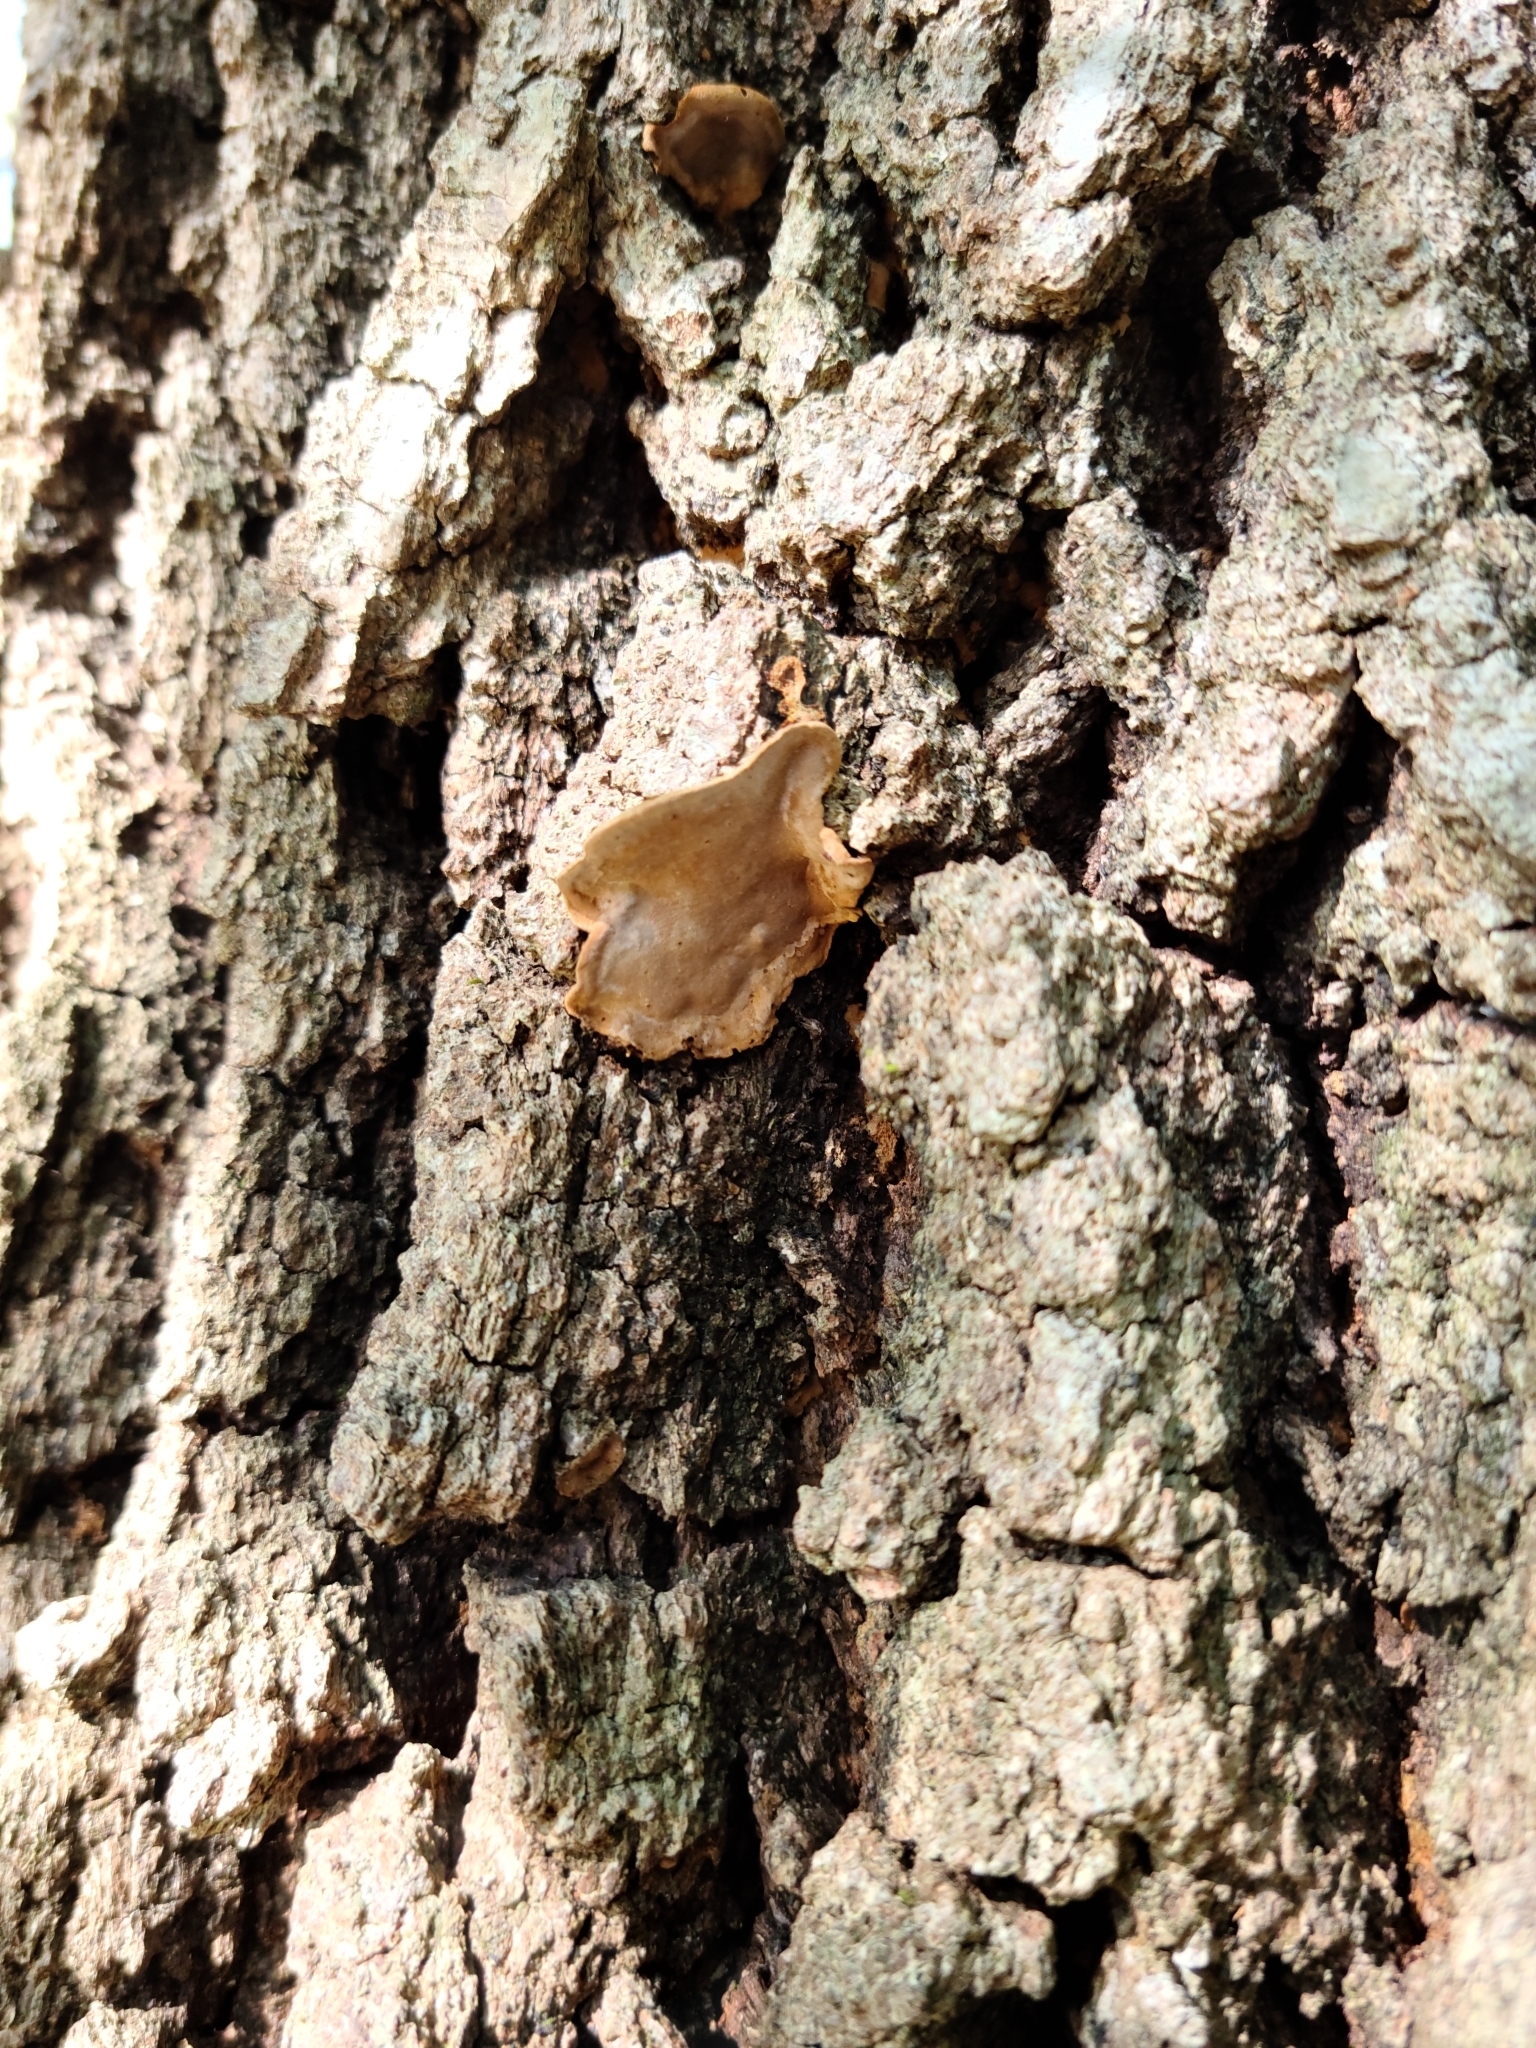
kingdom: Fungi
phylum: Basidiomycota
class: Agaricomycetes
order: Russulales
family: Stereaceae
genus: Stereum
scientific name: Stereum ostrea
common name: False turkeytail
